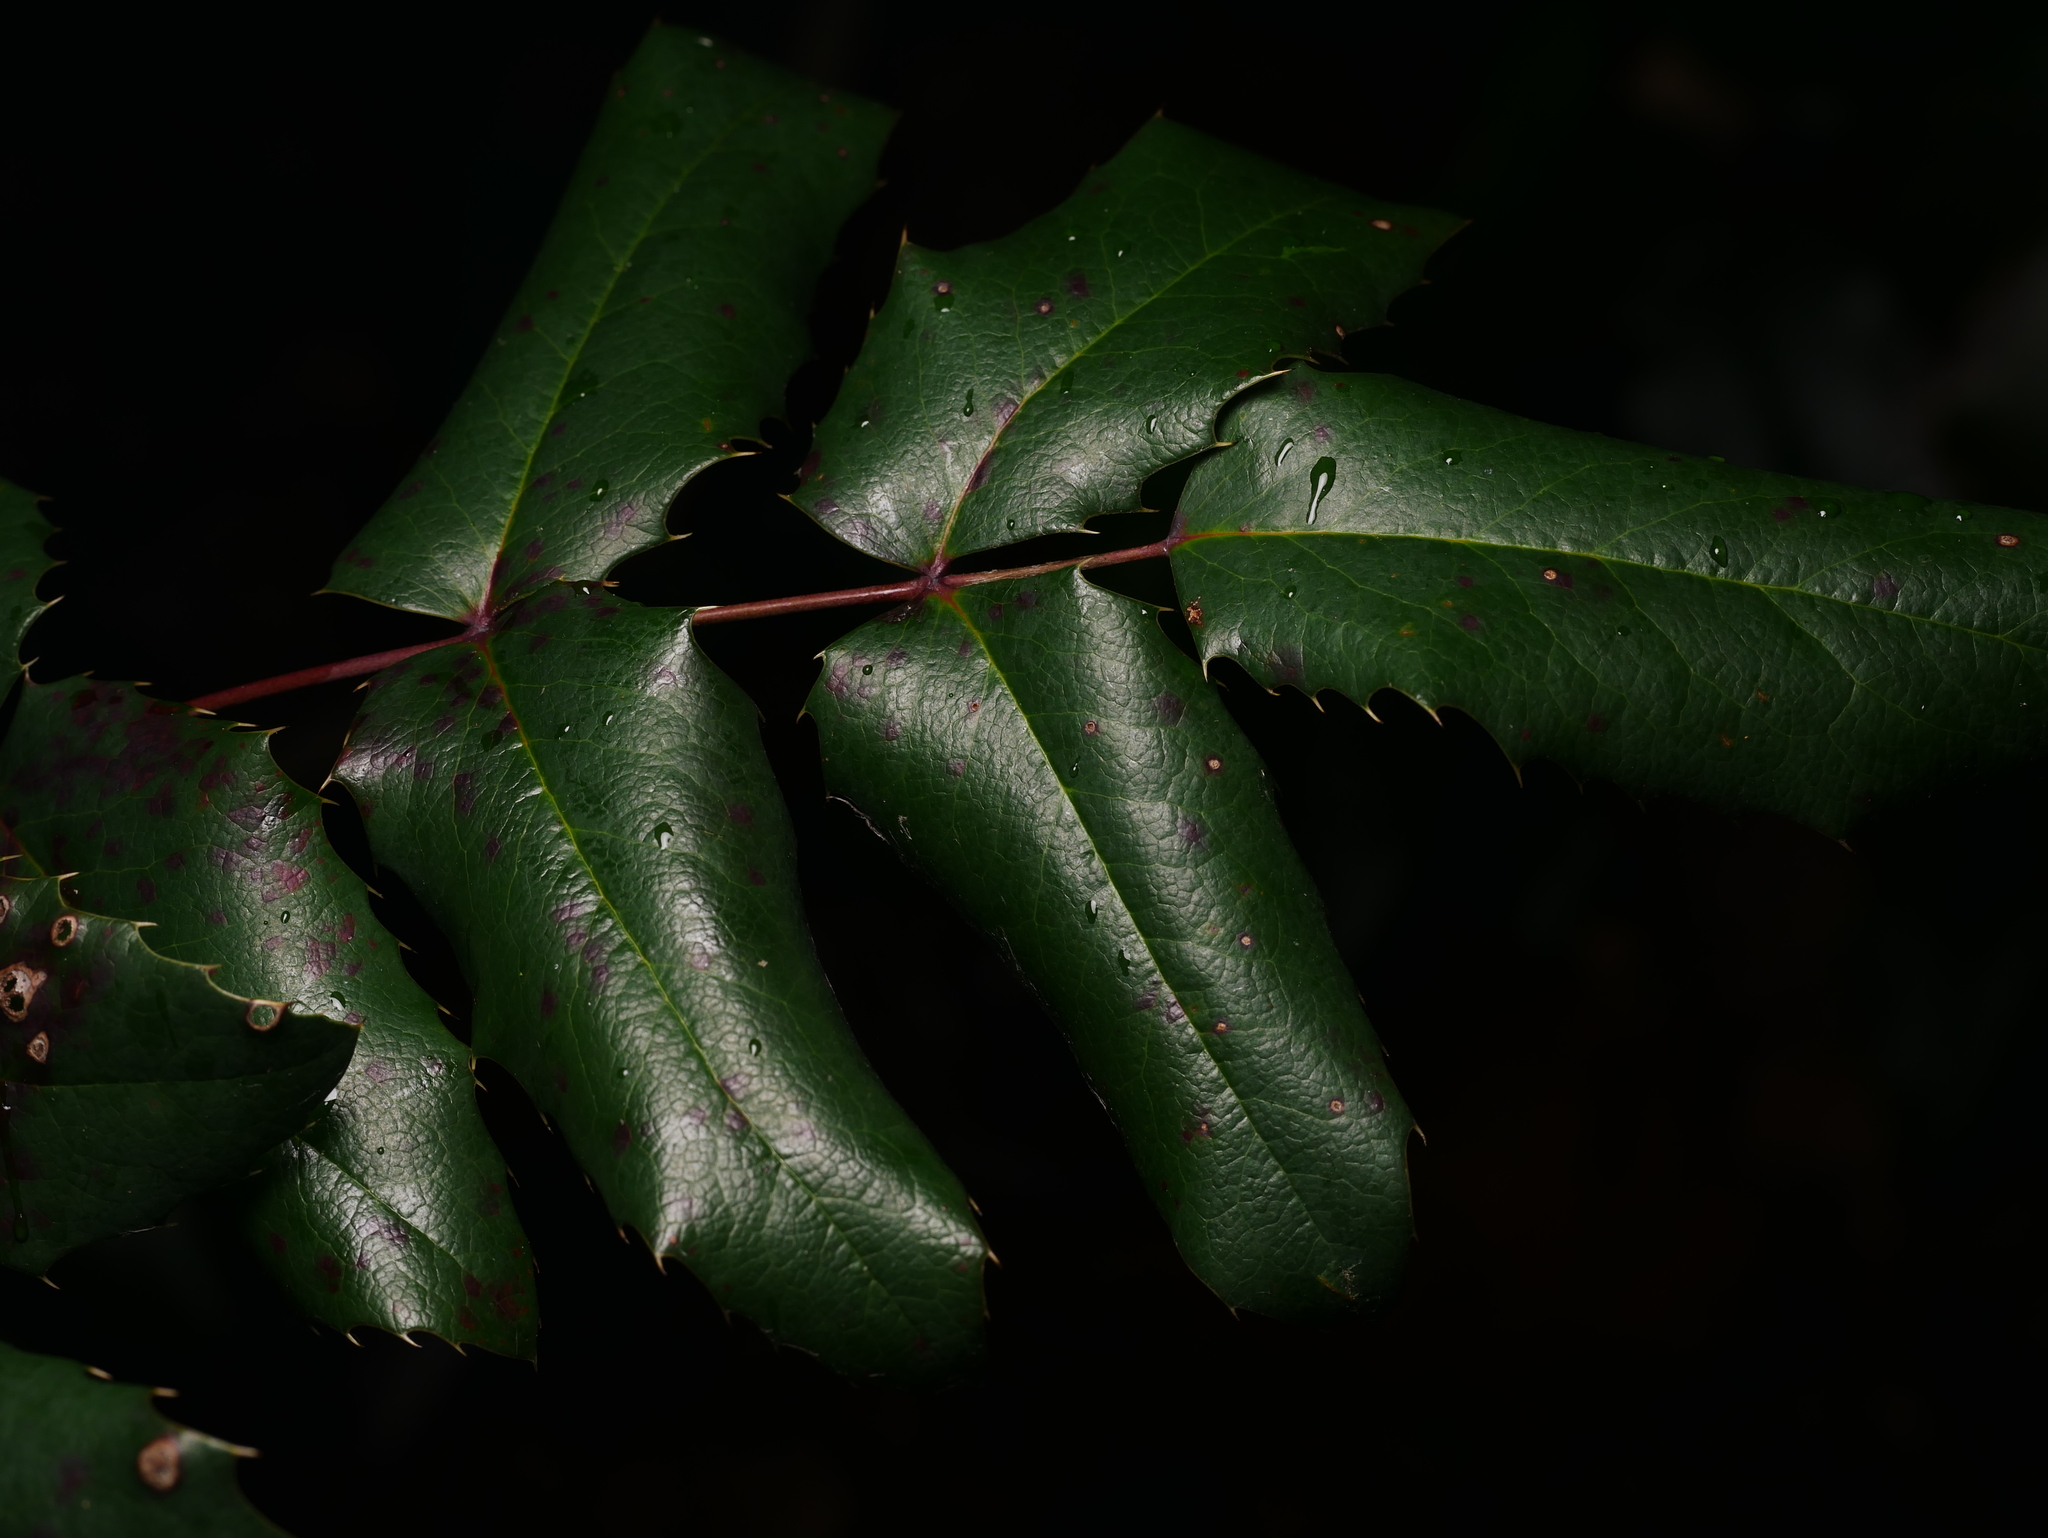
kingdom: Plantae
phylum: Tracheophyta
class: Magnoliopsida
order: Ranunculales
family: Berberidaceae
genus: Mahonia
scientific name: Mahonia aquifolium
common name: Oregon-grape
